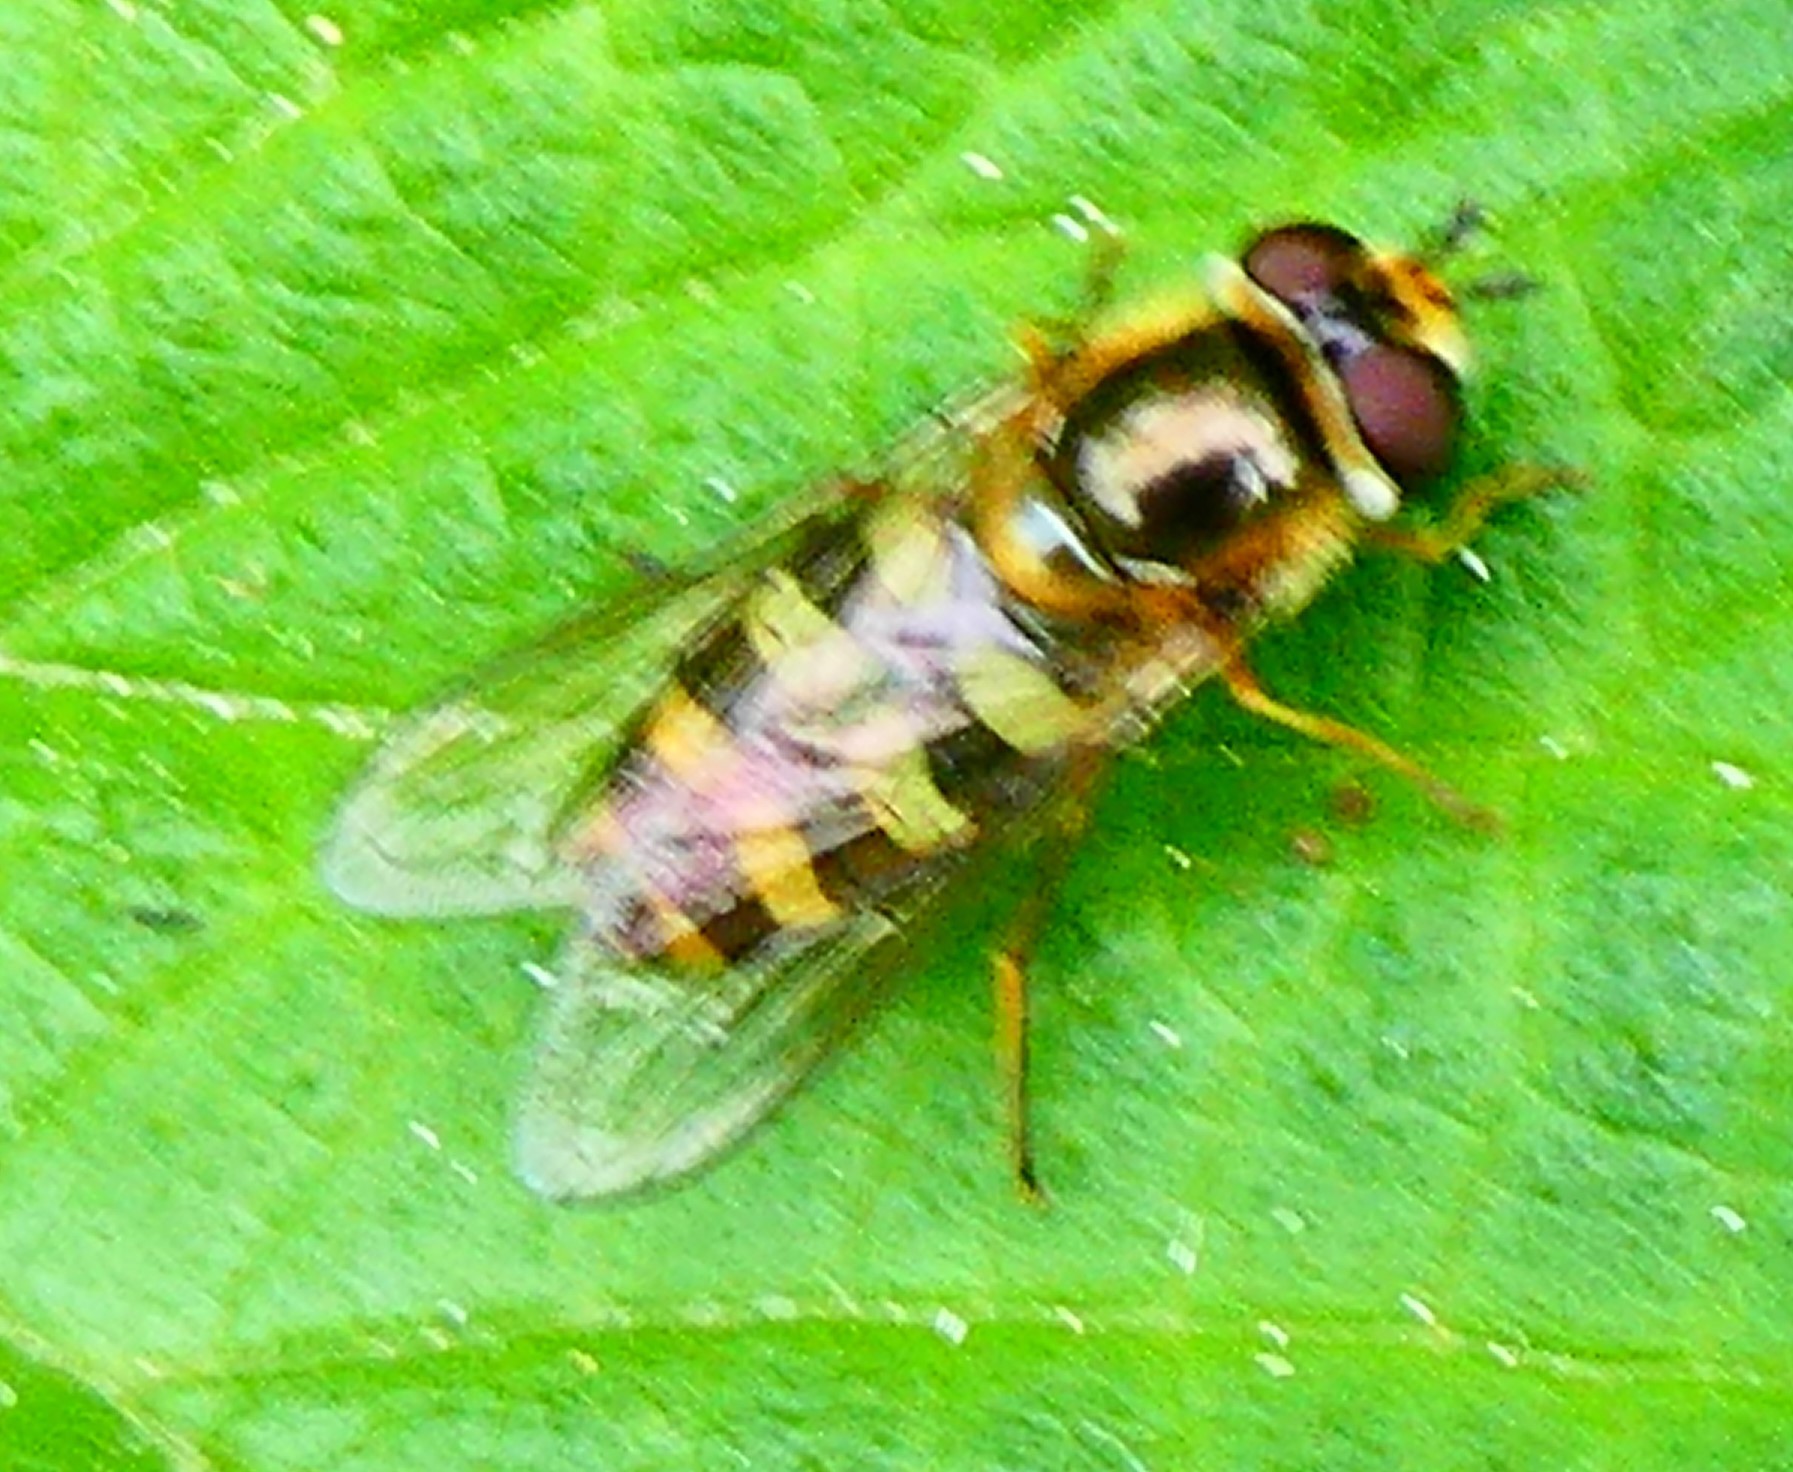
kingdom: Animalia
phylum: Arthropoda
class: Insecta
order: Diptera
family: Syrphidae
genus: Eupeodes
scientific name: Eupeodes
